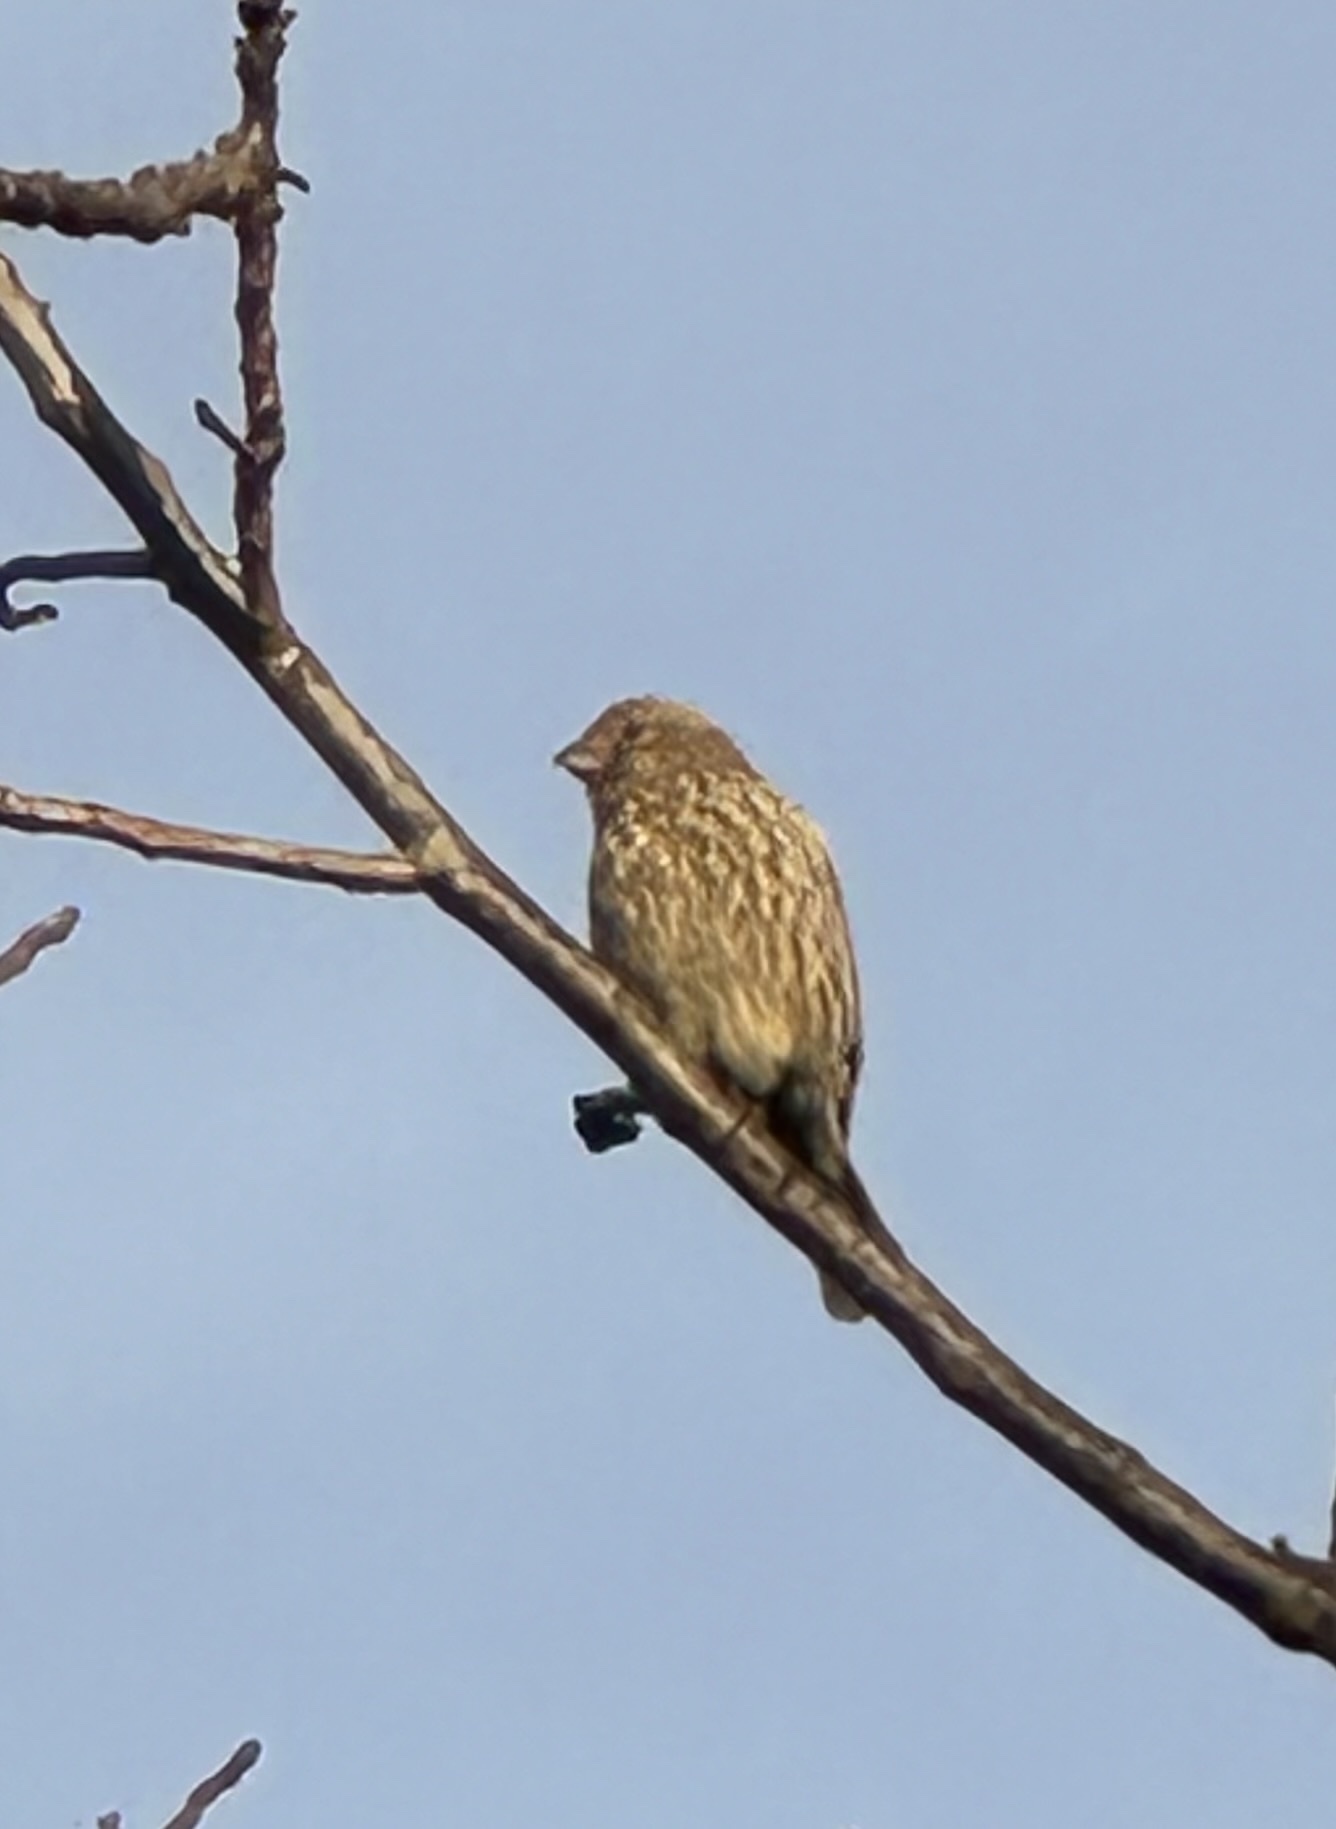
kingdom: Animalia
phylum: Chordata
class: Aves
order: Passeriformes
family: Fringillidae
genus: Haemorhous
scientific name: Haemorhous mexicanus
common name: House finch
